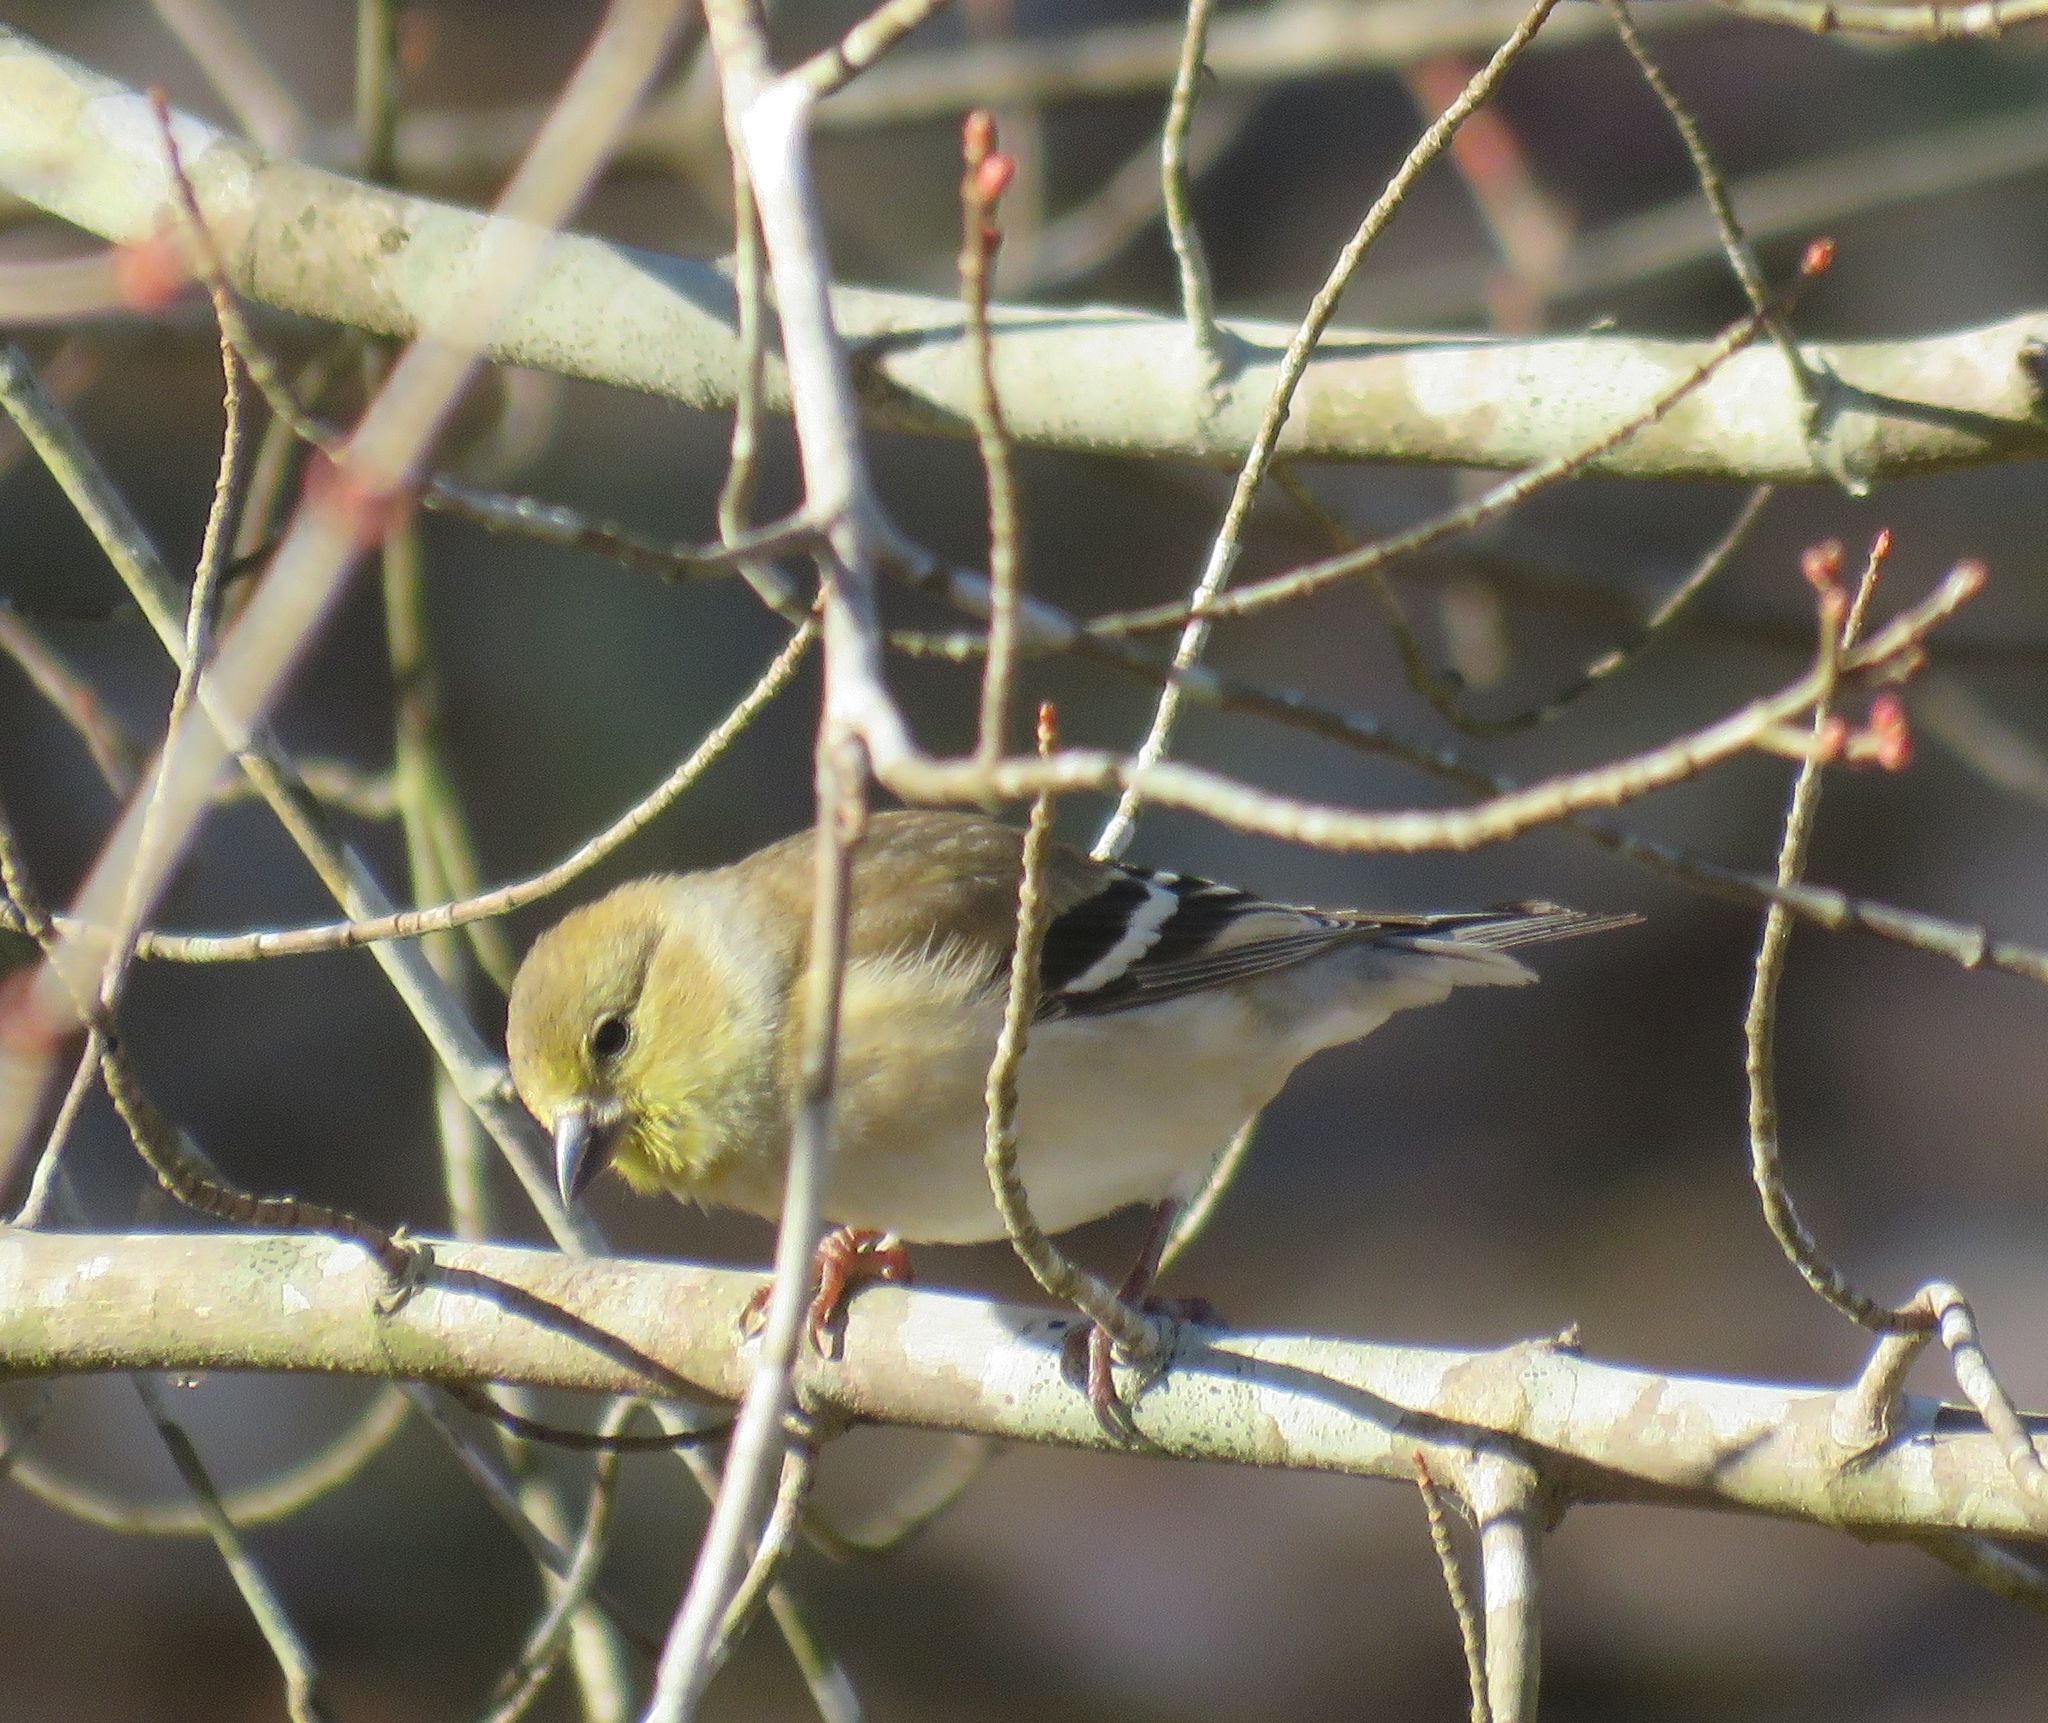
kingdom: Animalia
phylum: Chordata
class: Aves
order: Passeriformes
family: Fringillidae
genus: Spinus
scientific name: Spinus tristis
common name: American goldfinch
